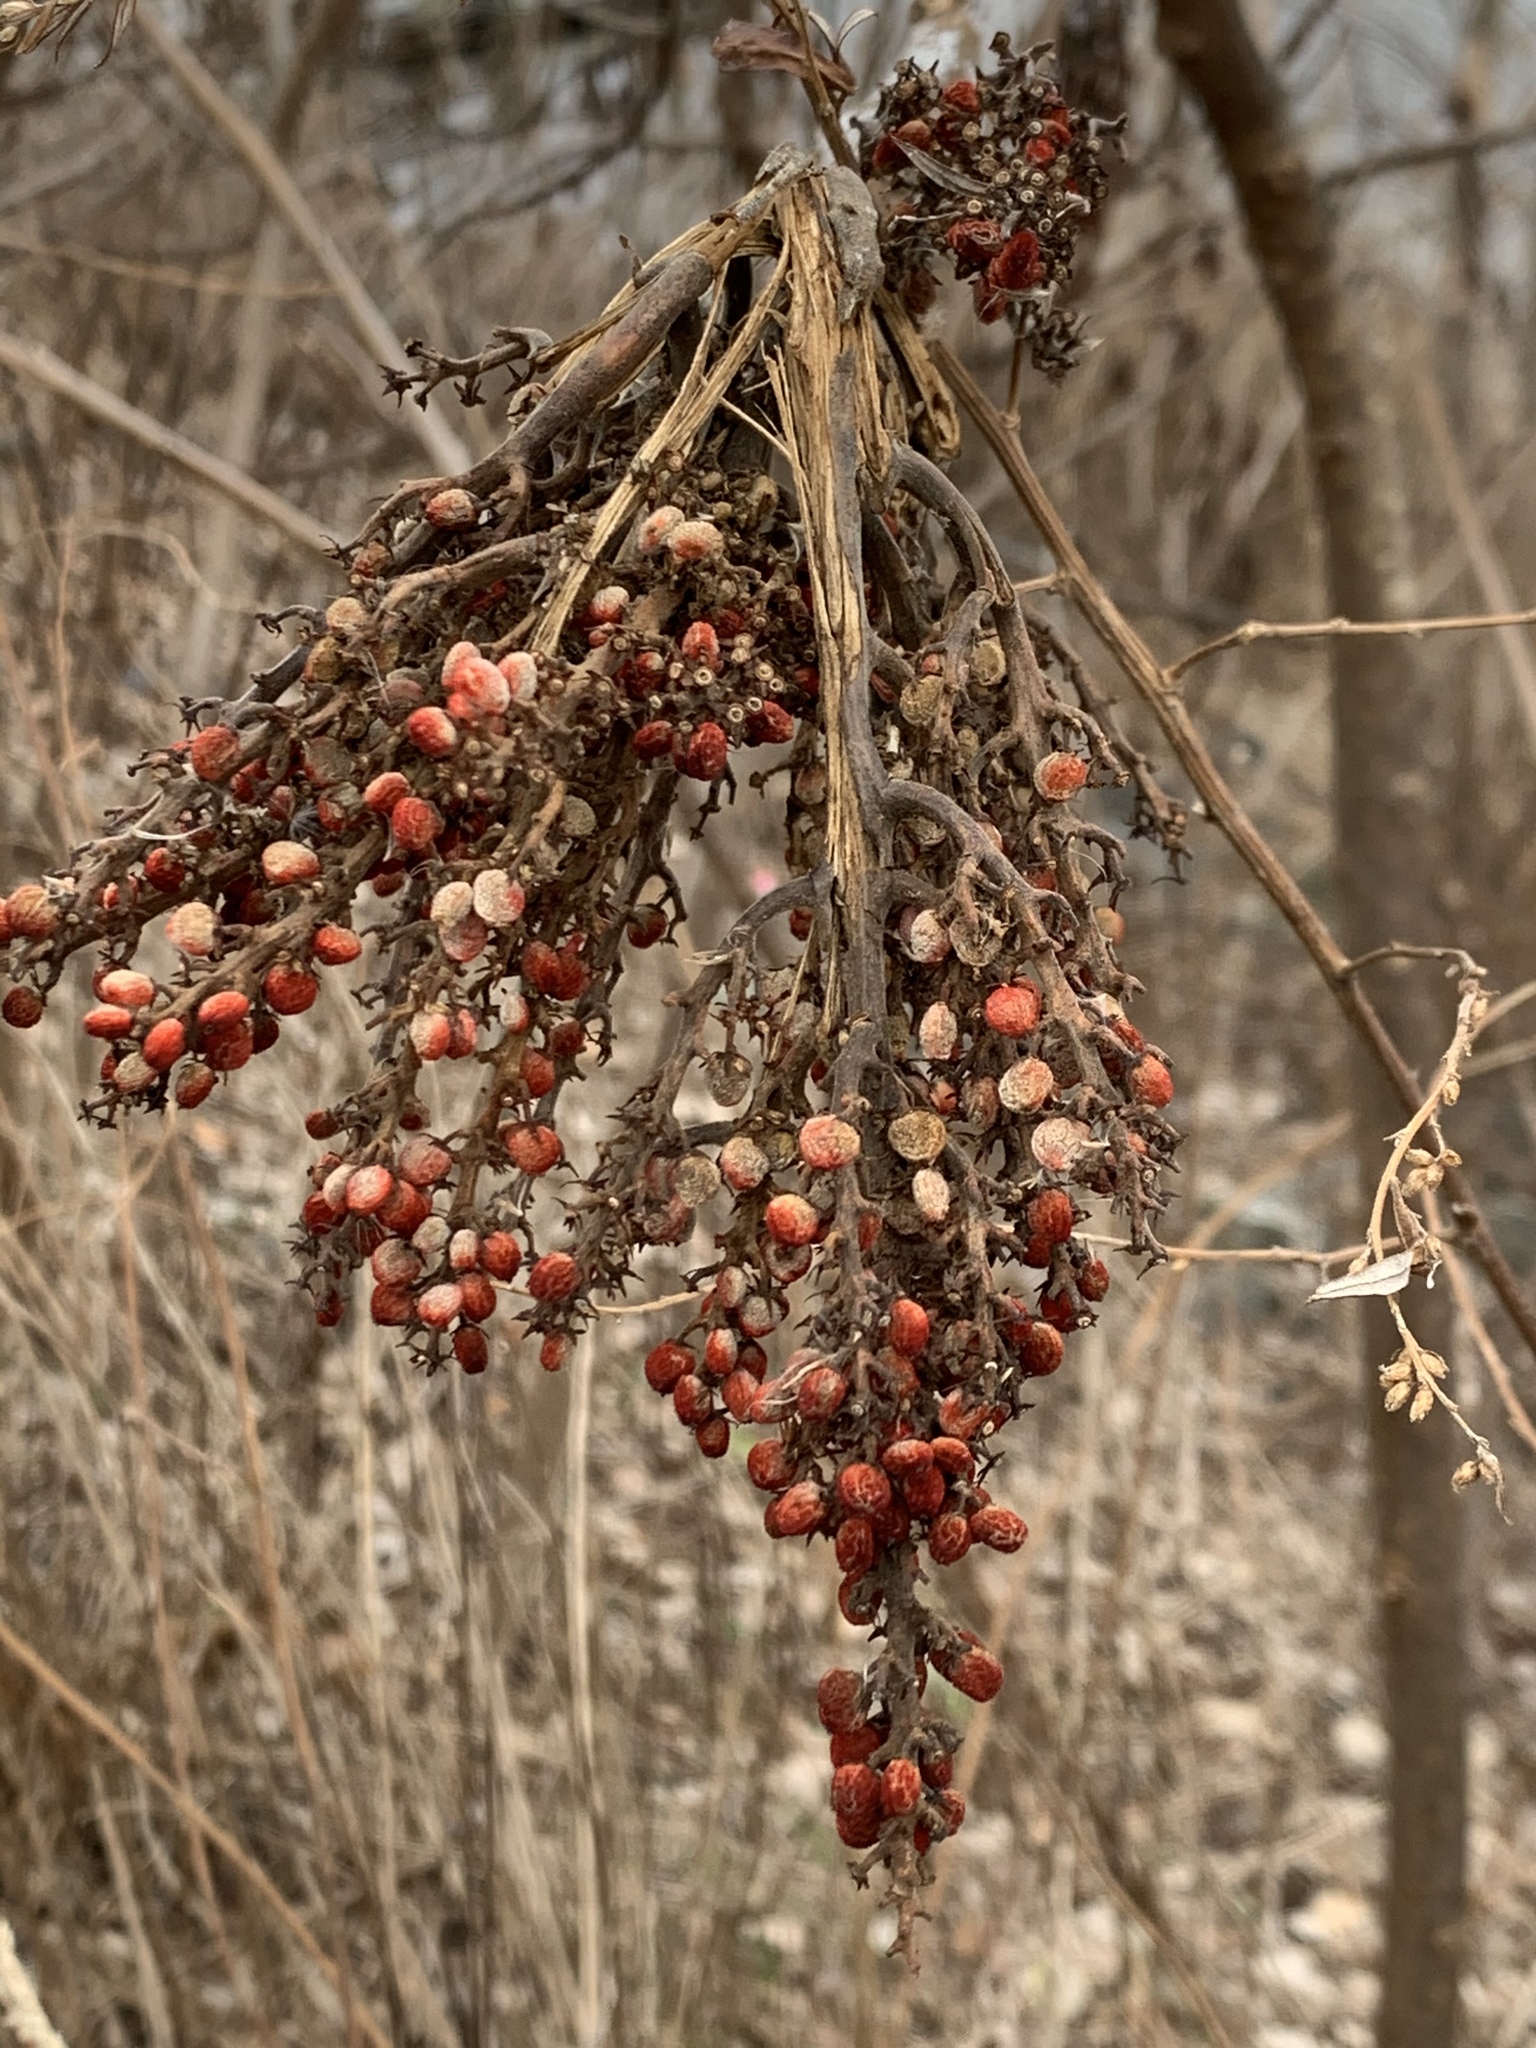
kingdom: Plantae
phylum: Tracheophyta
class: Magnoliopsida
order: Sapindales
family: Anacardiaceae
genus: Rhus
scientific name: Rhus glabra
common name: Scarlet sumac
